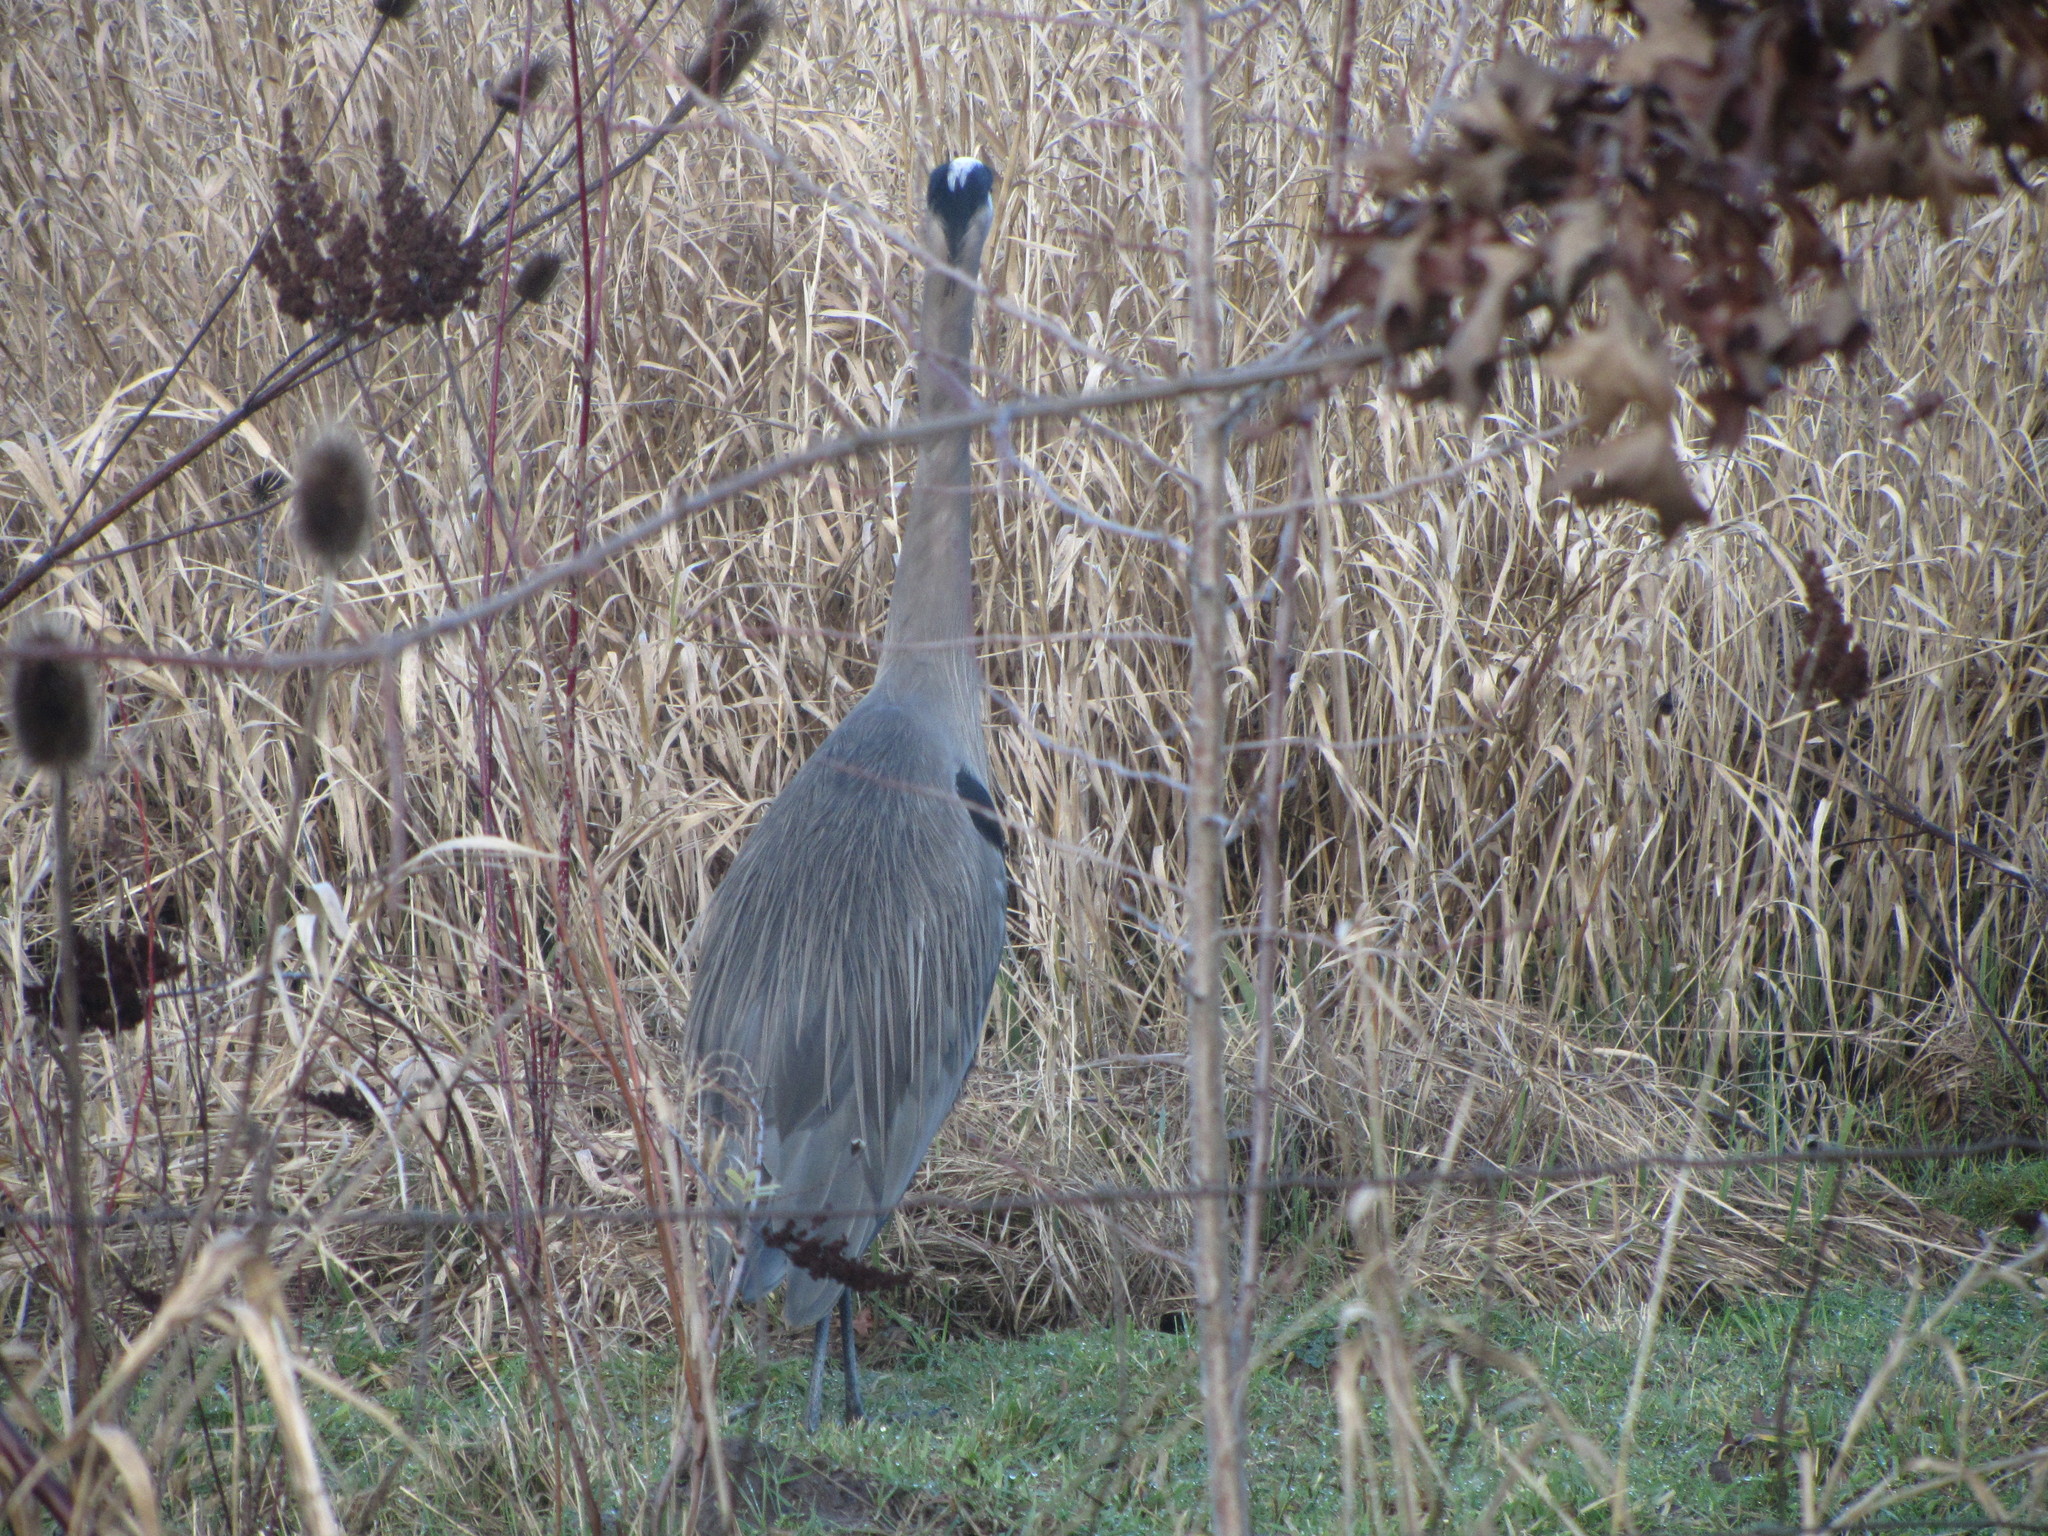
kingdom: Animalia
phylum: Chordata
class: Aves
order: Pelecaniformes
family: Ardeidae
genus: Ardea
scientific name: Ardea herodias
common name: Great blue heron
